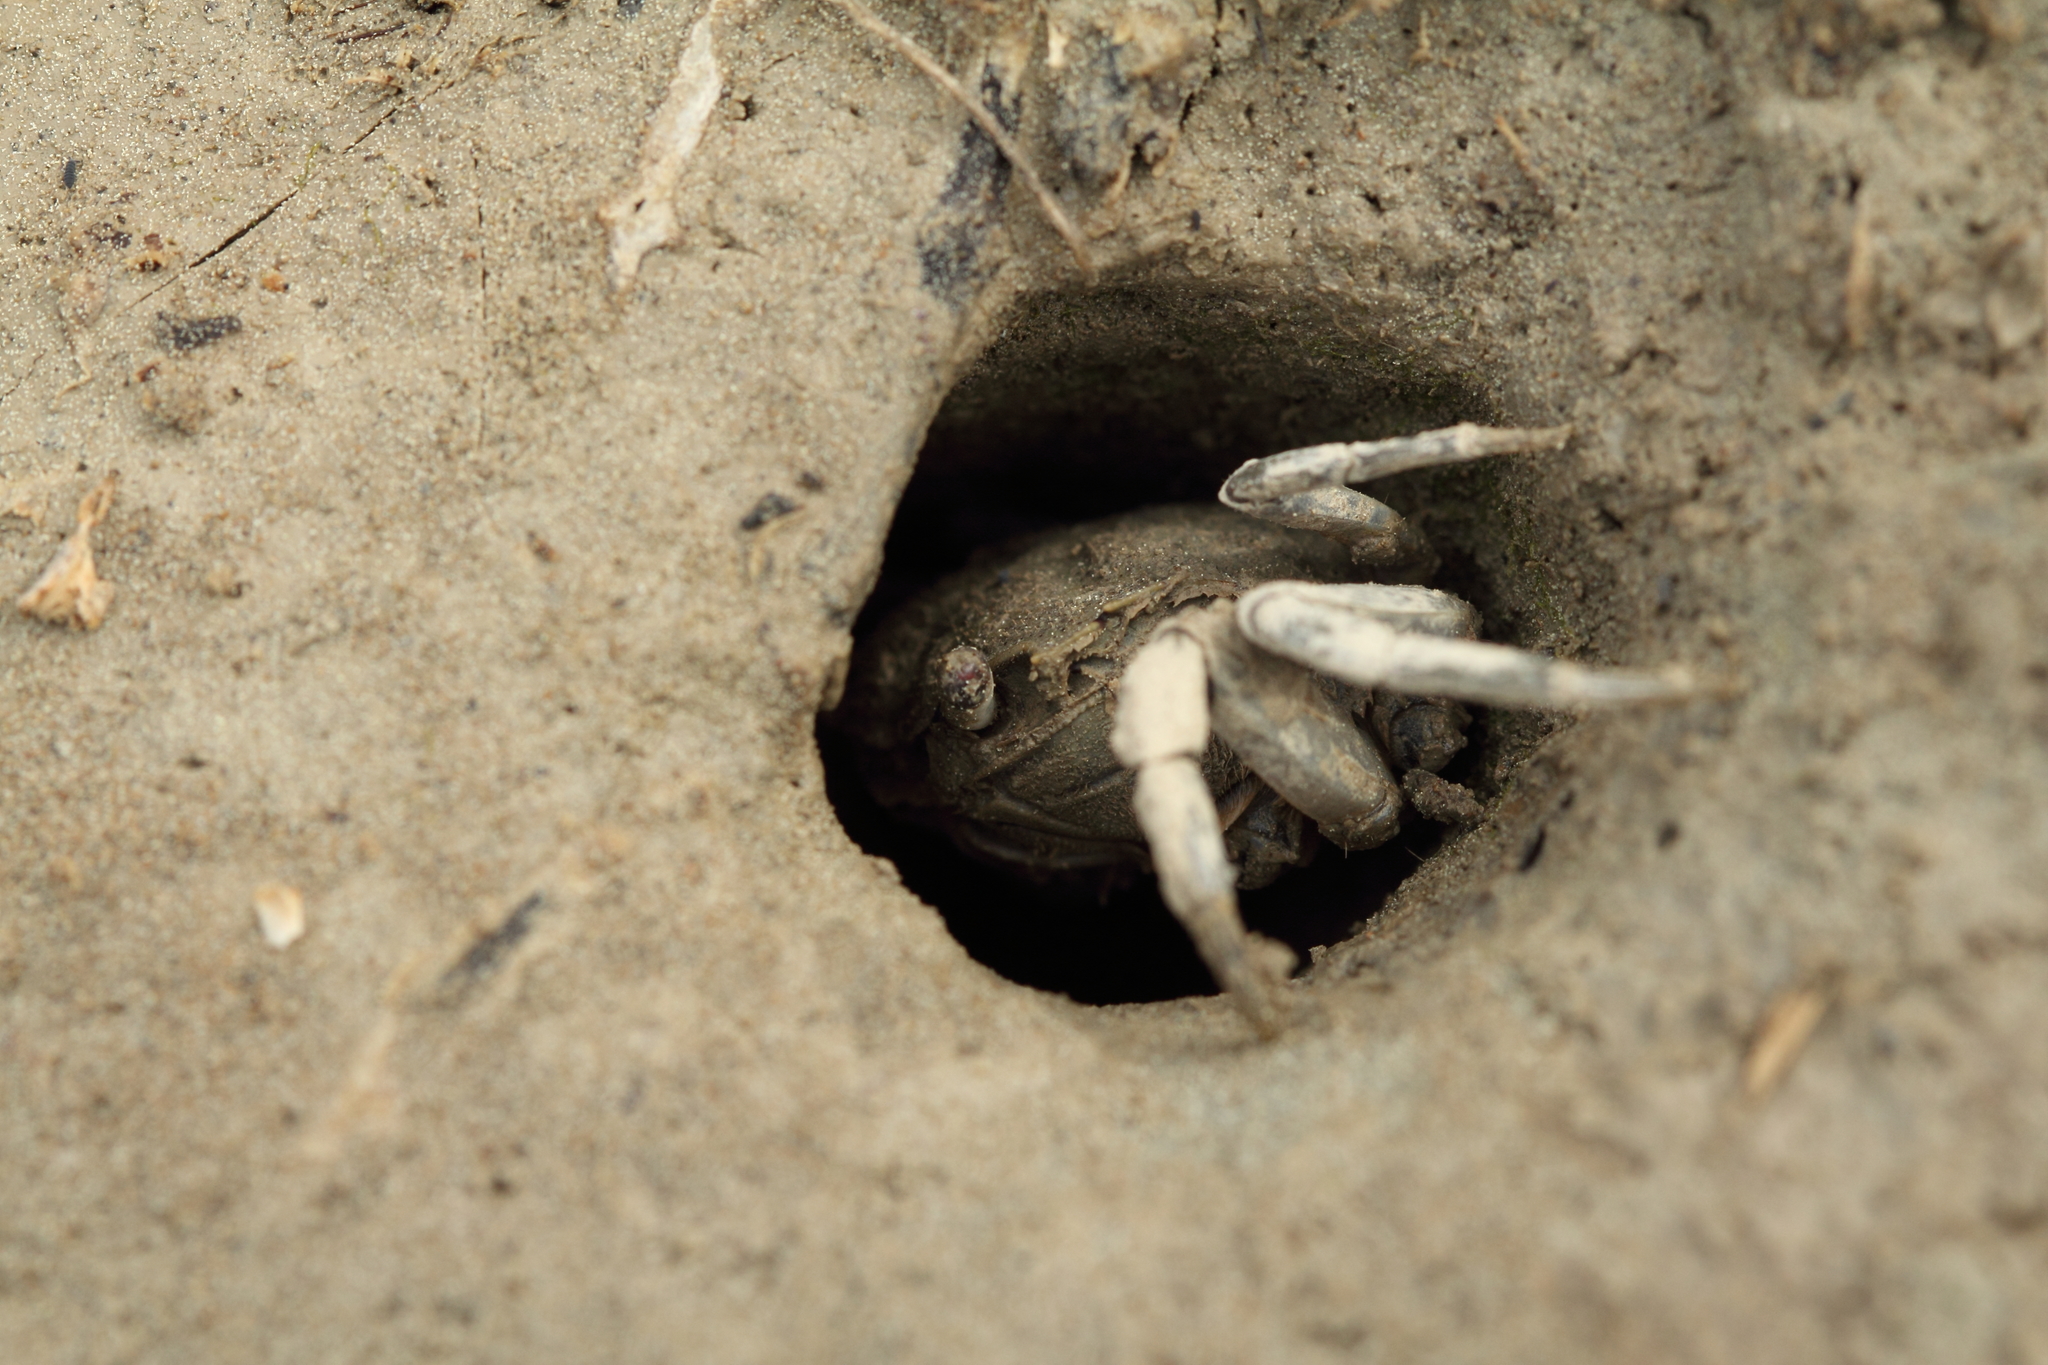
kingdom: Animalia
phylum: Arthropoda
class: Malacostraca
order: Decapoda
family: Varunidae
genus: Austrohelice
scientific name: Austrohelice crassa
